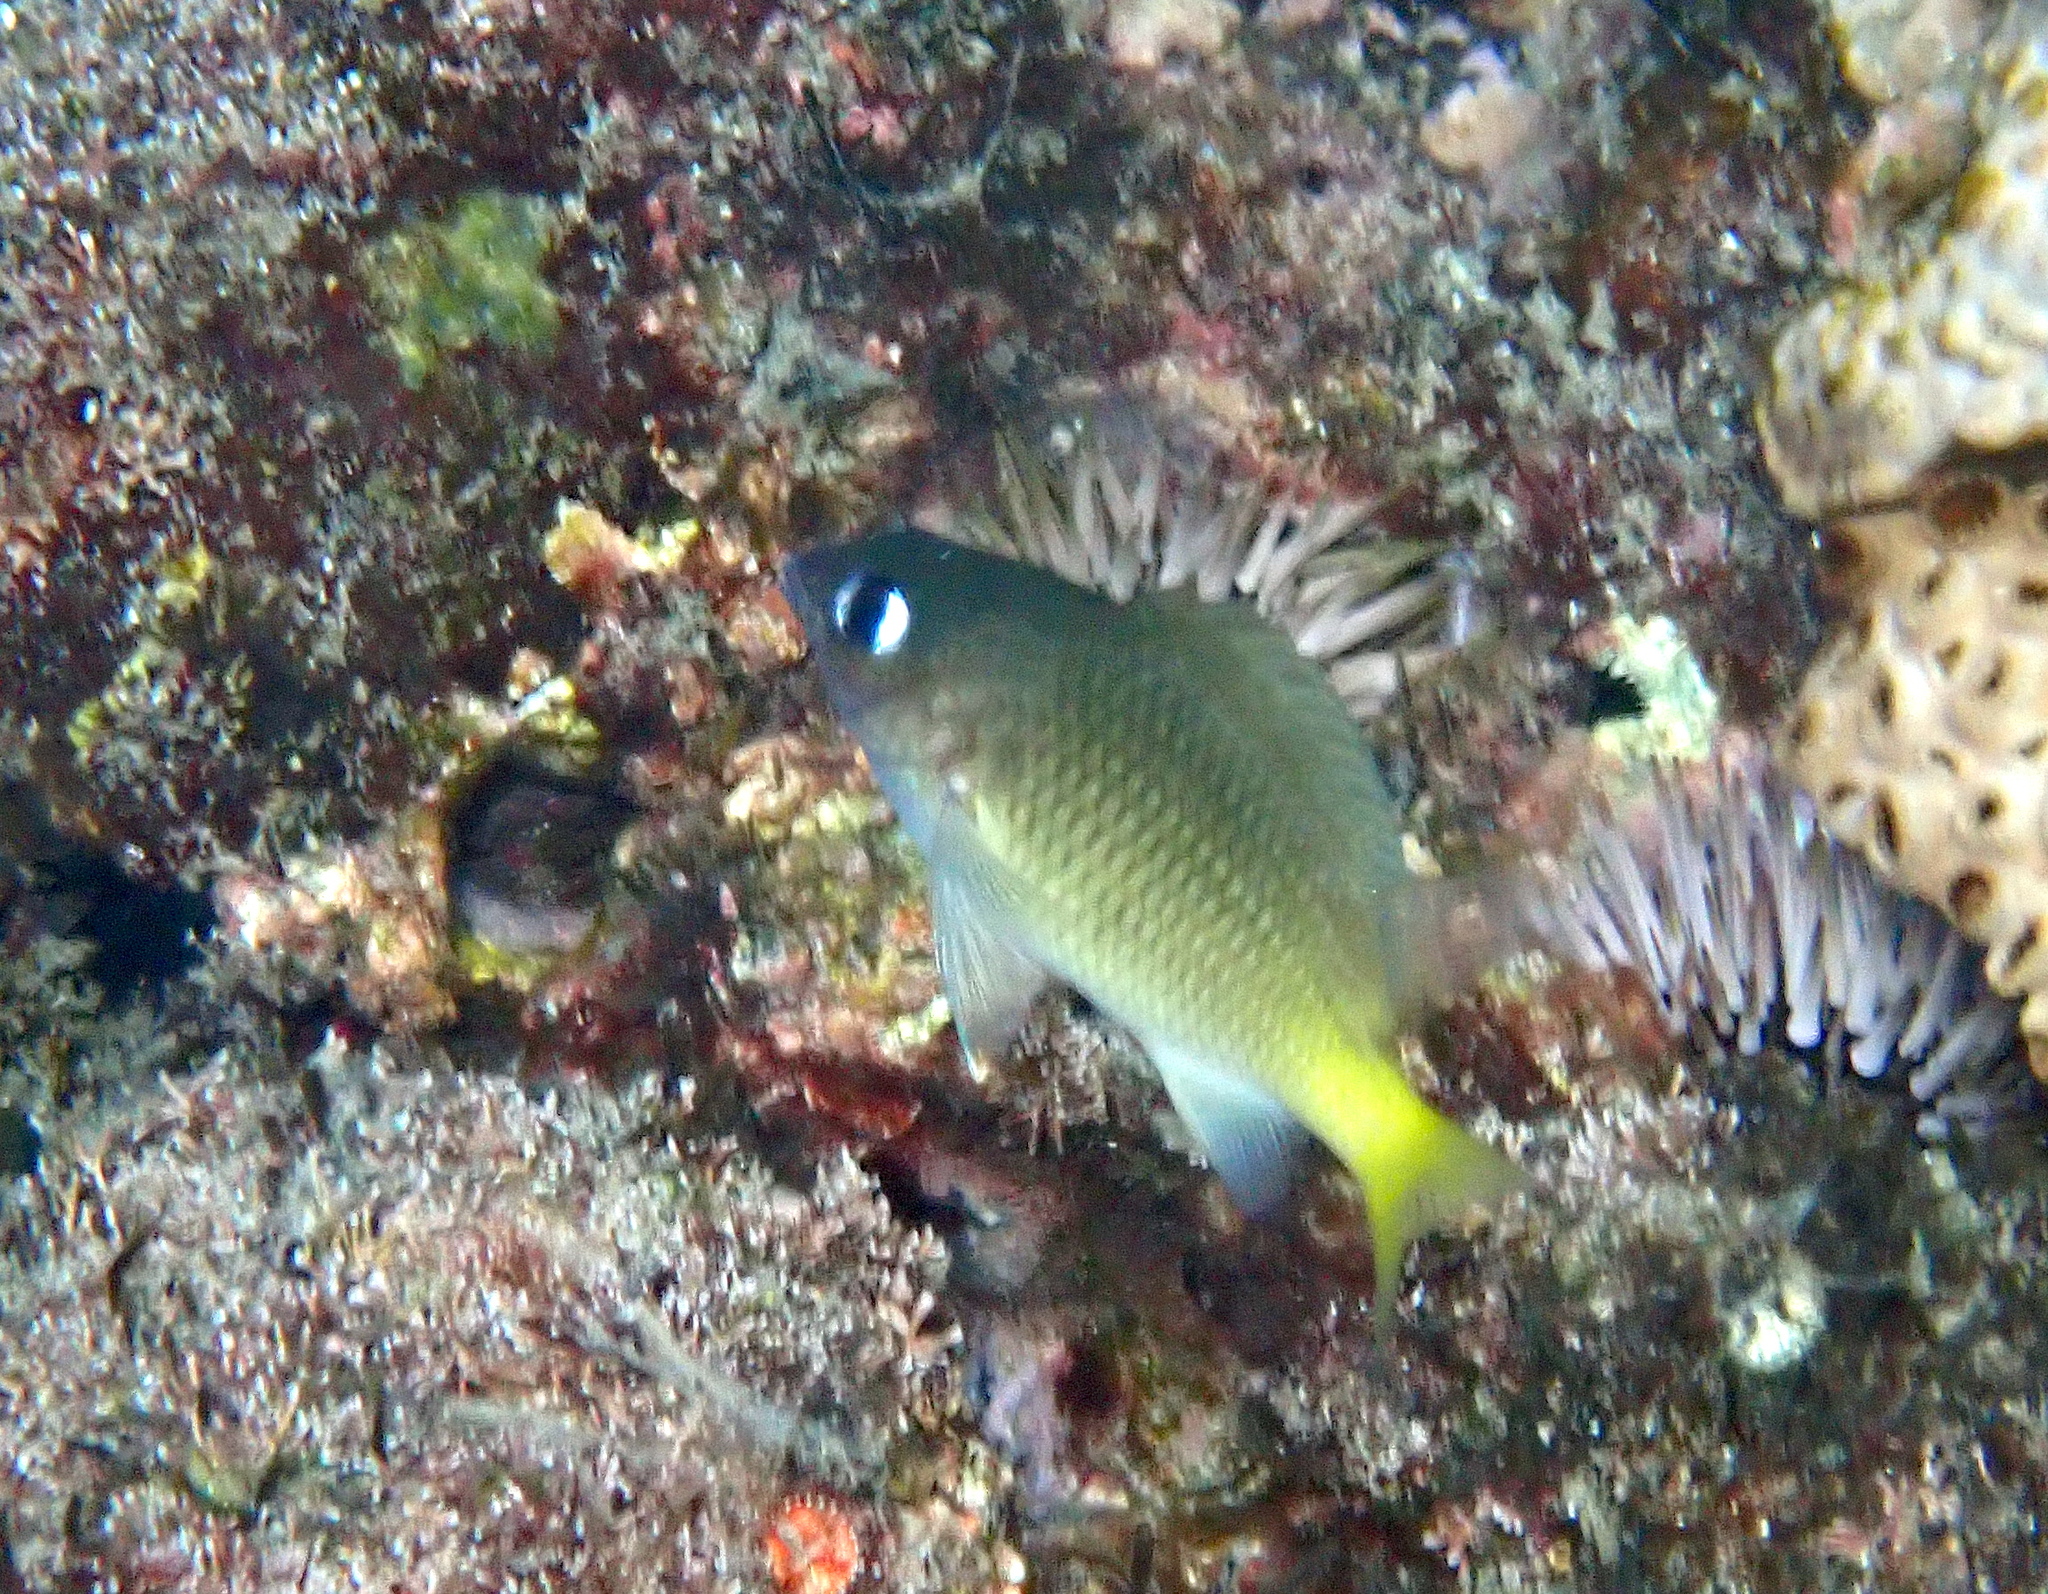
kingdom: Animalia
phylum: Chordata
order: Perciformes
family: Pomacentridae
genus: Plectroglyphidodon
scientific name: Plectroglyphidodon imparipennis
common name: Brighteye damsel
